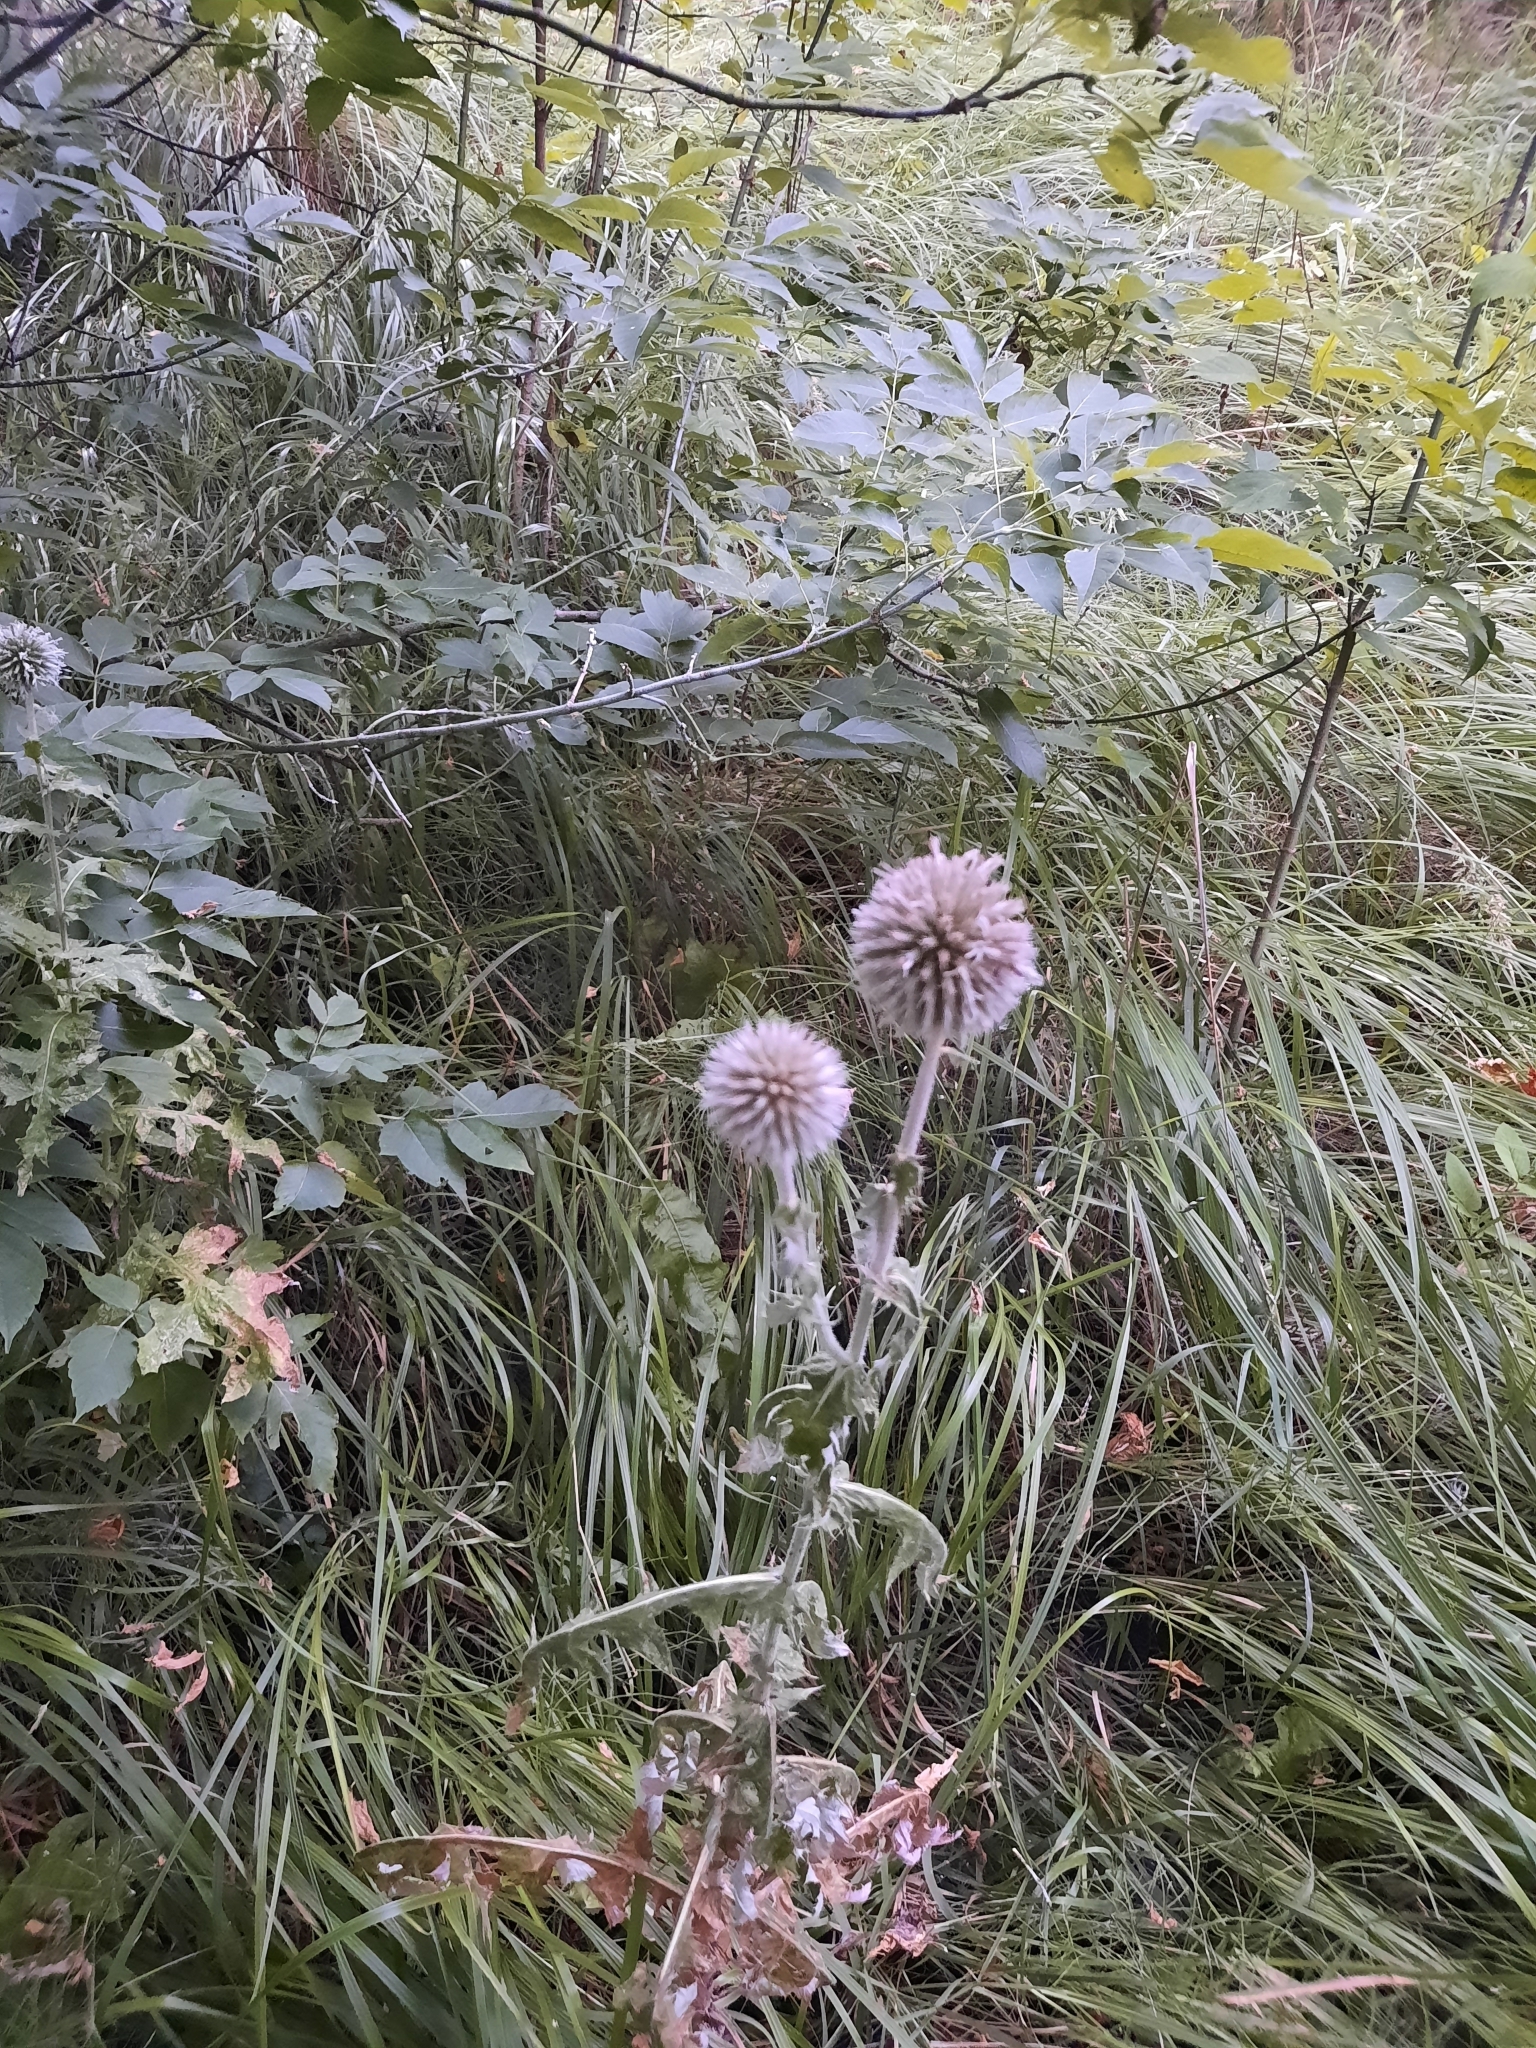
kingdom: Plantae
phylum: Tracheophyta
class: Magnoliopsida
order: Asterales
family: Asteraceae
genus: Echinops
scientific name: Echinops sphaerocephalus
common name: Glandular globe-thistle
